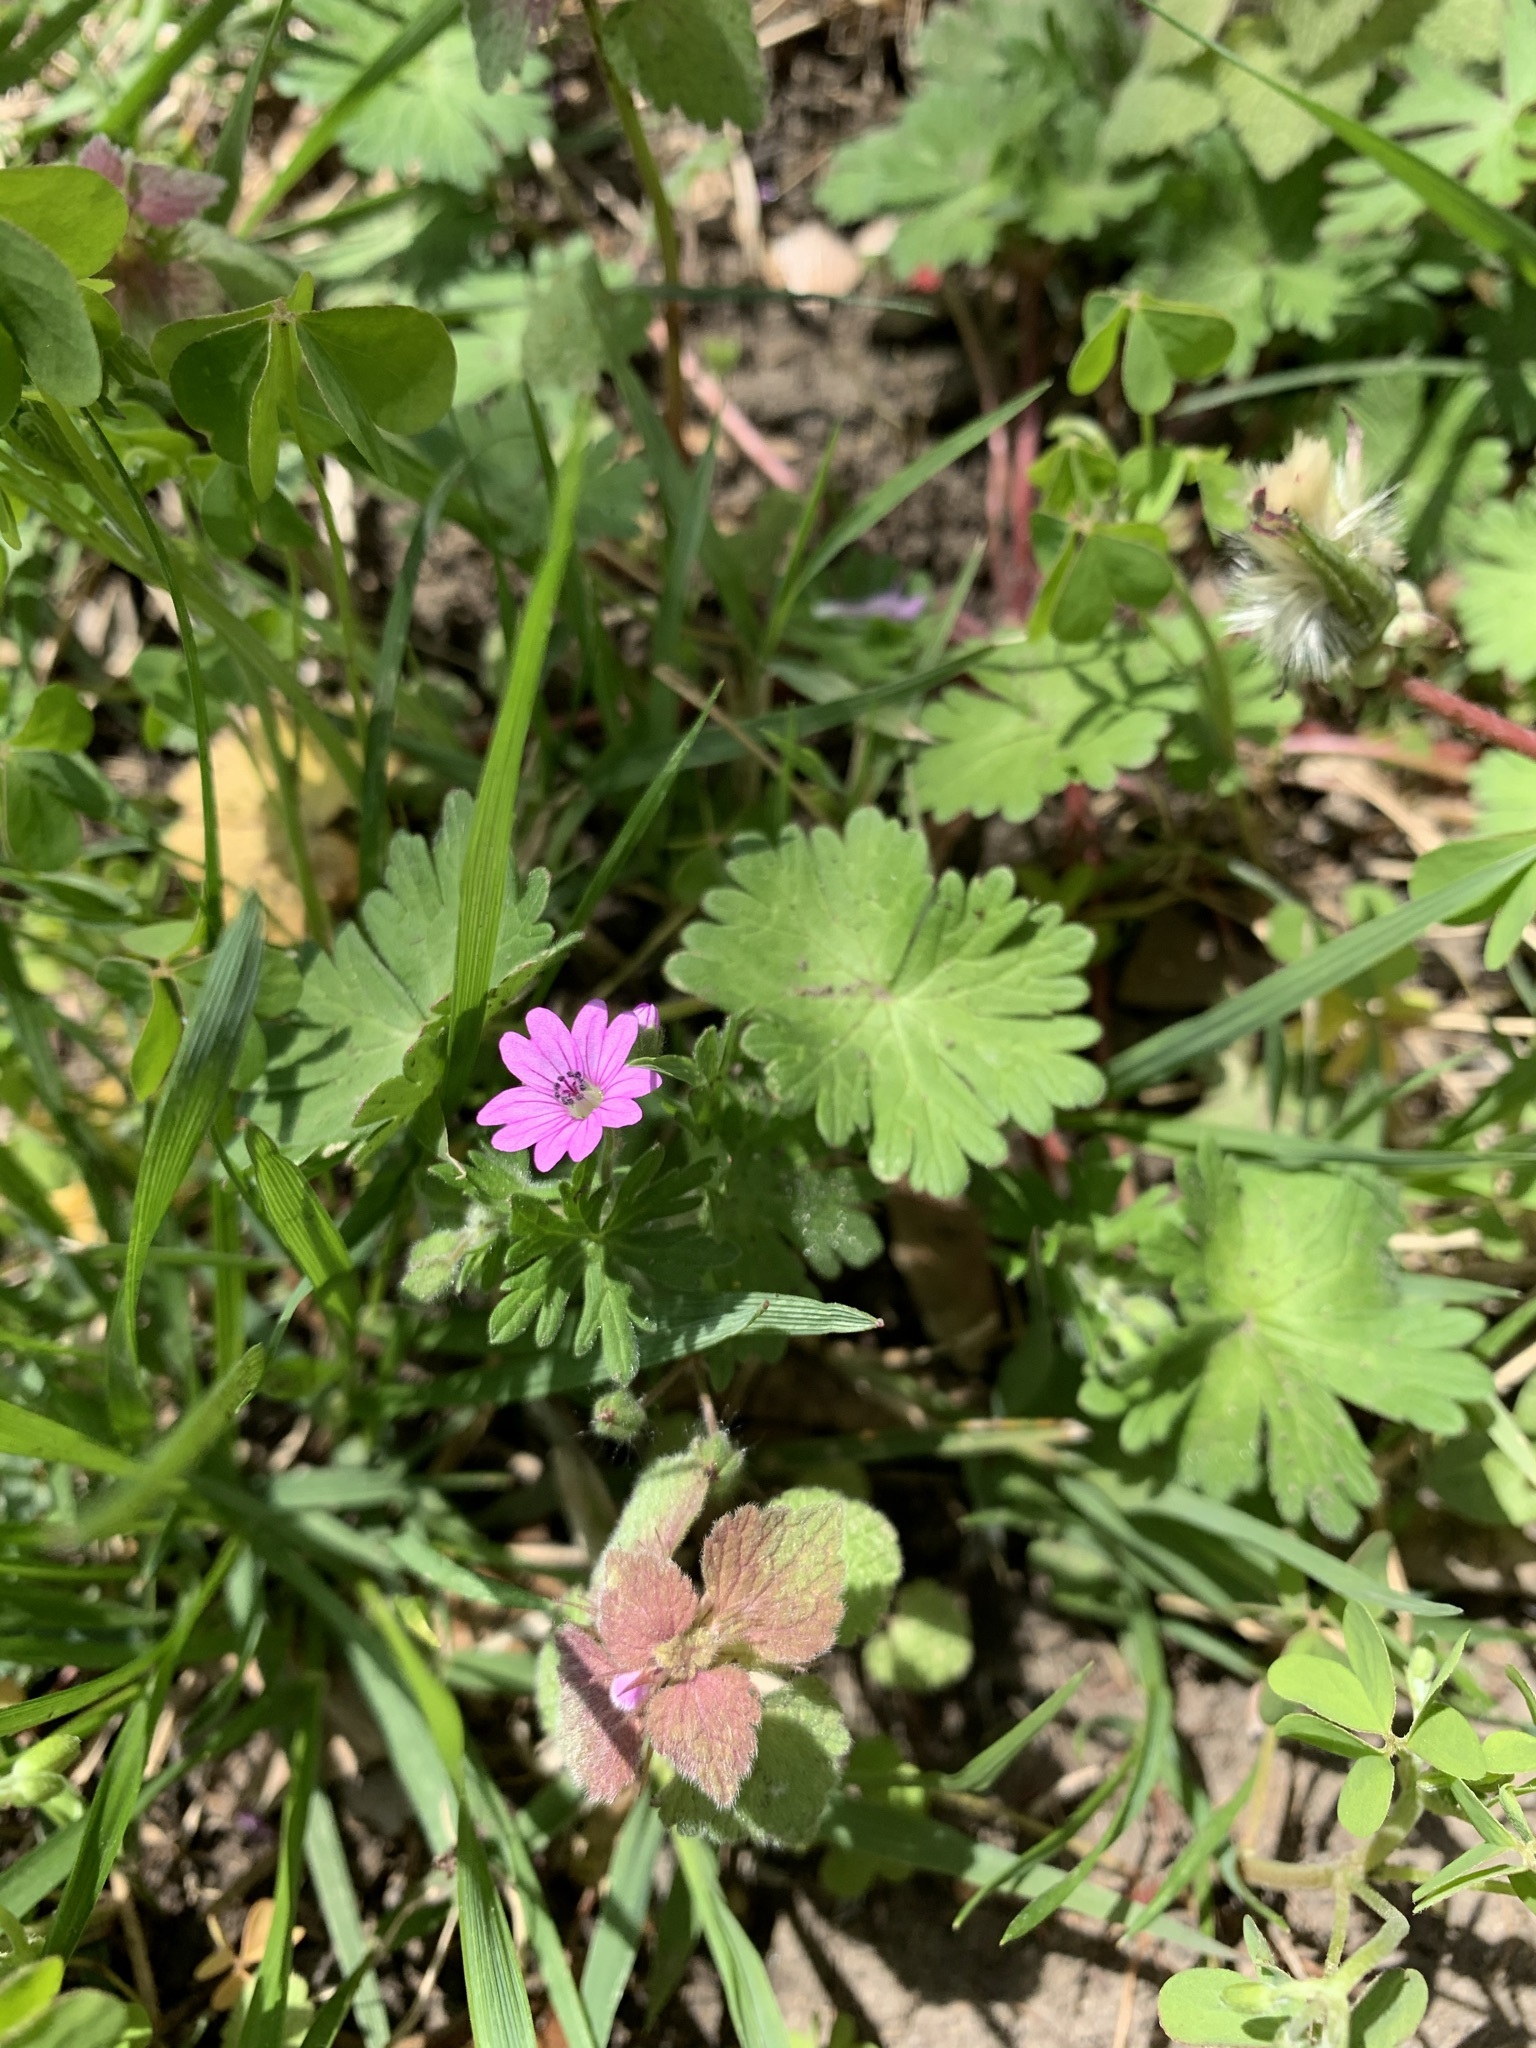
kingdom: Plantae
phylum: Tracheophyta
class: Magnoliopsida
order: Geraniales
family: Geraniaceae
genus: Geranium
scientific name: Geranium molle
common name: Dove's-foot crane's-bill
